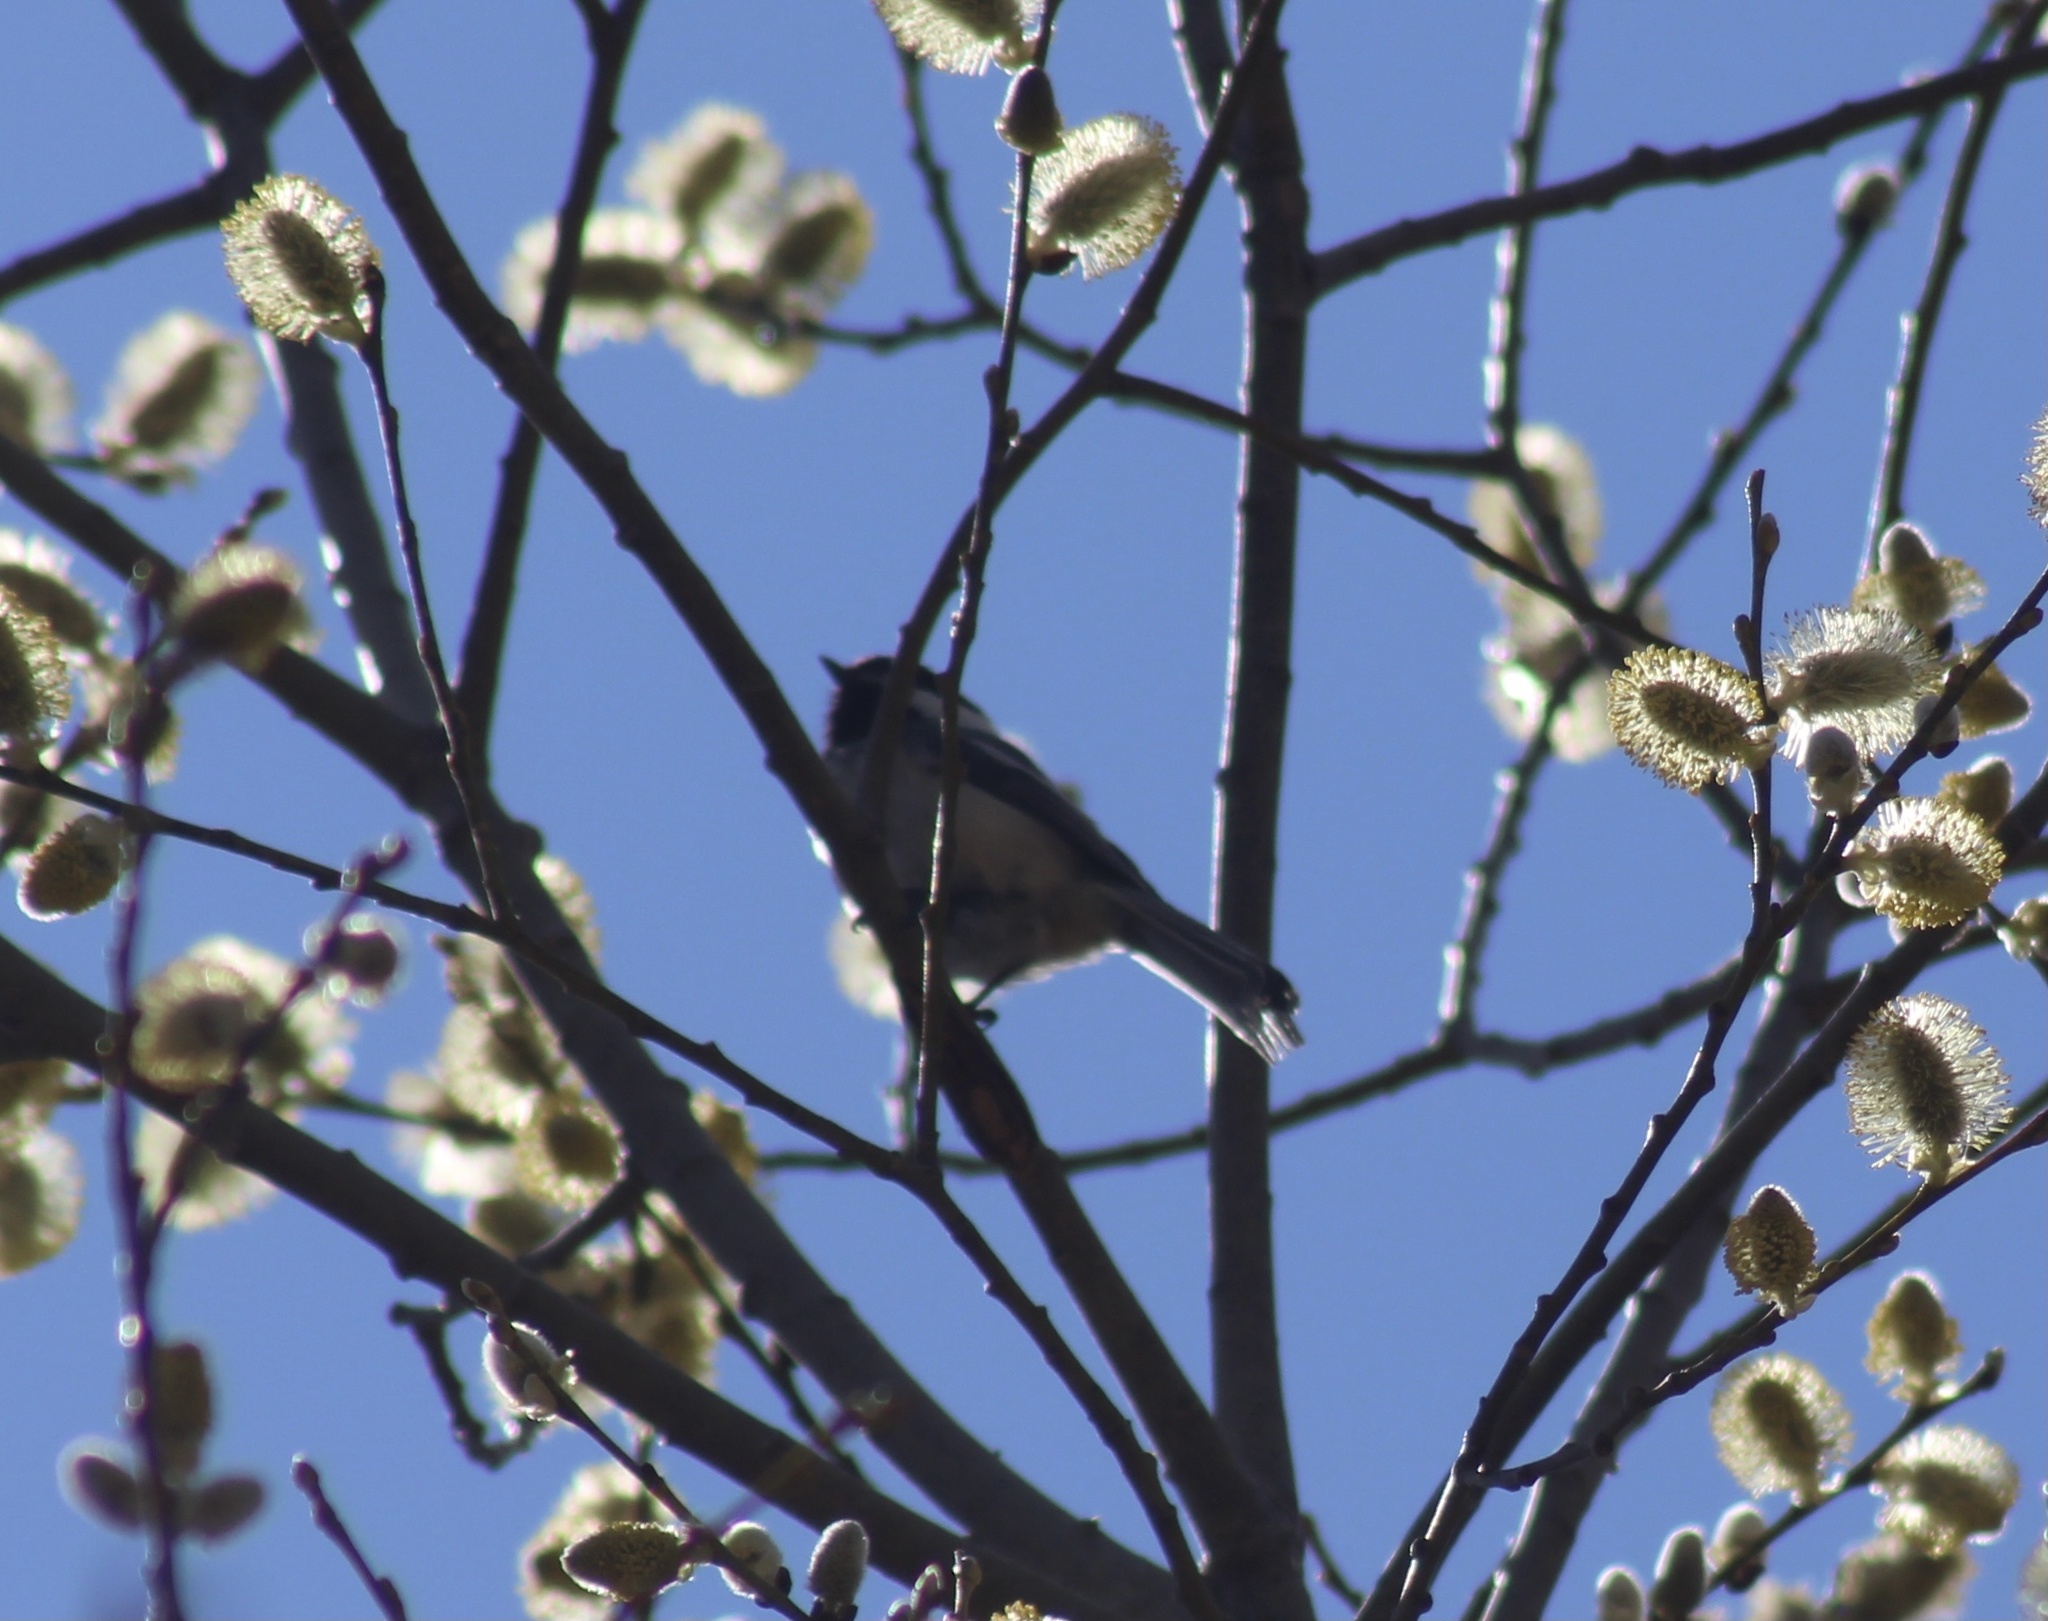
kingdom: Animalia
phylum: Chordata
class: Aves
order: Passeriformes
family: Paridae
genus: Poecile
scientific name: Poecile atricapillus
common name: Black-capped chickadee
